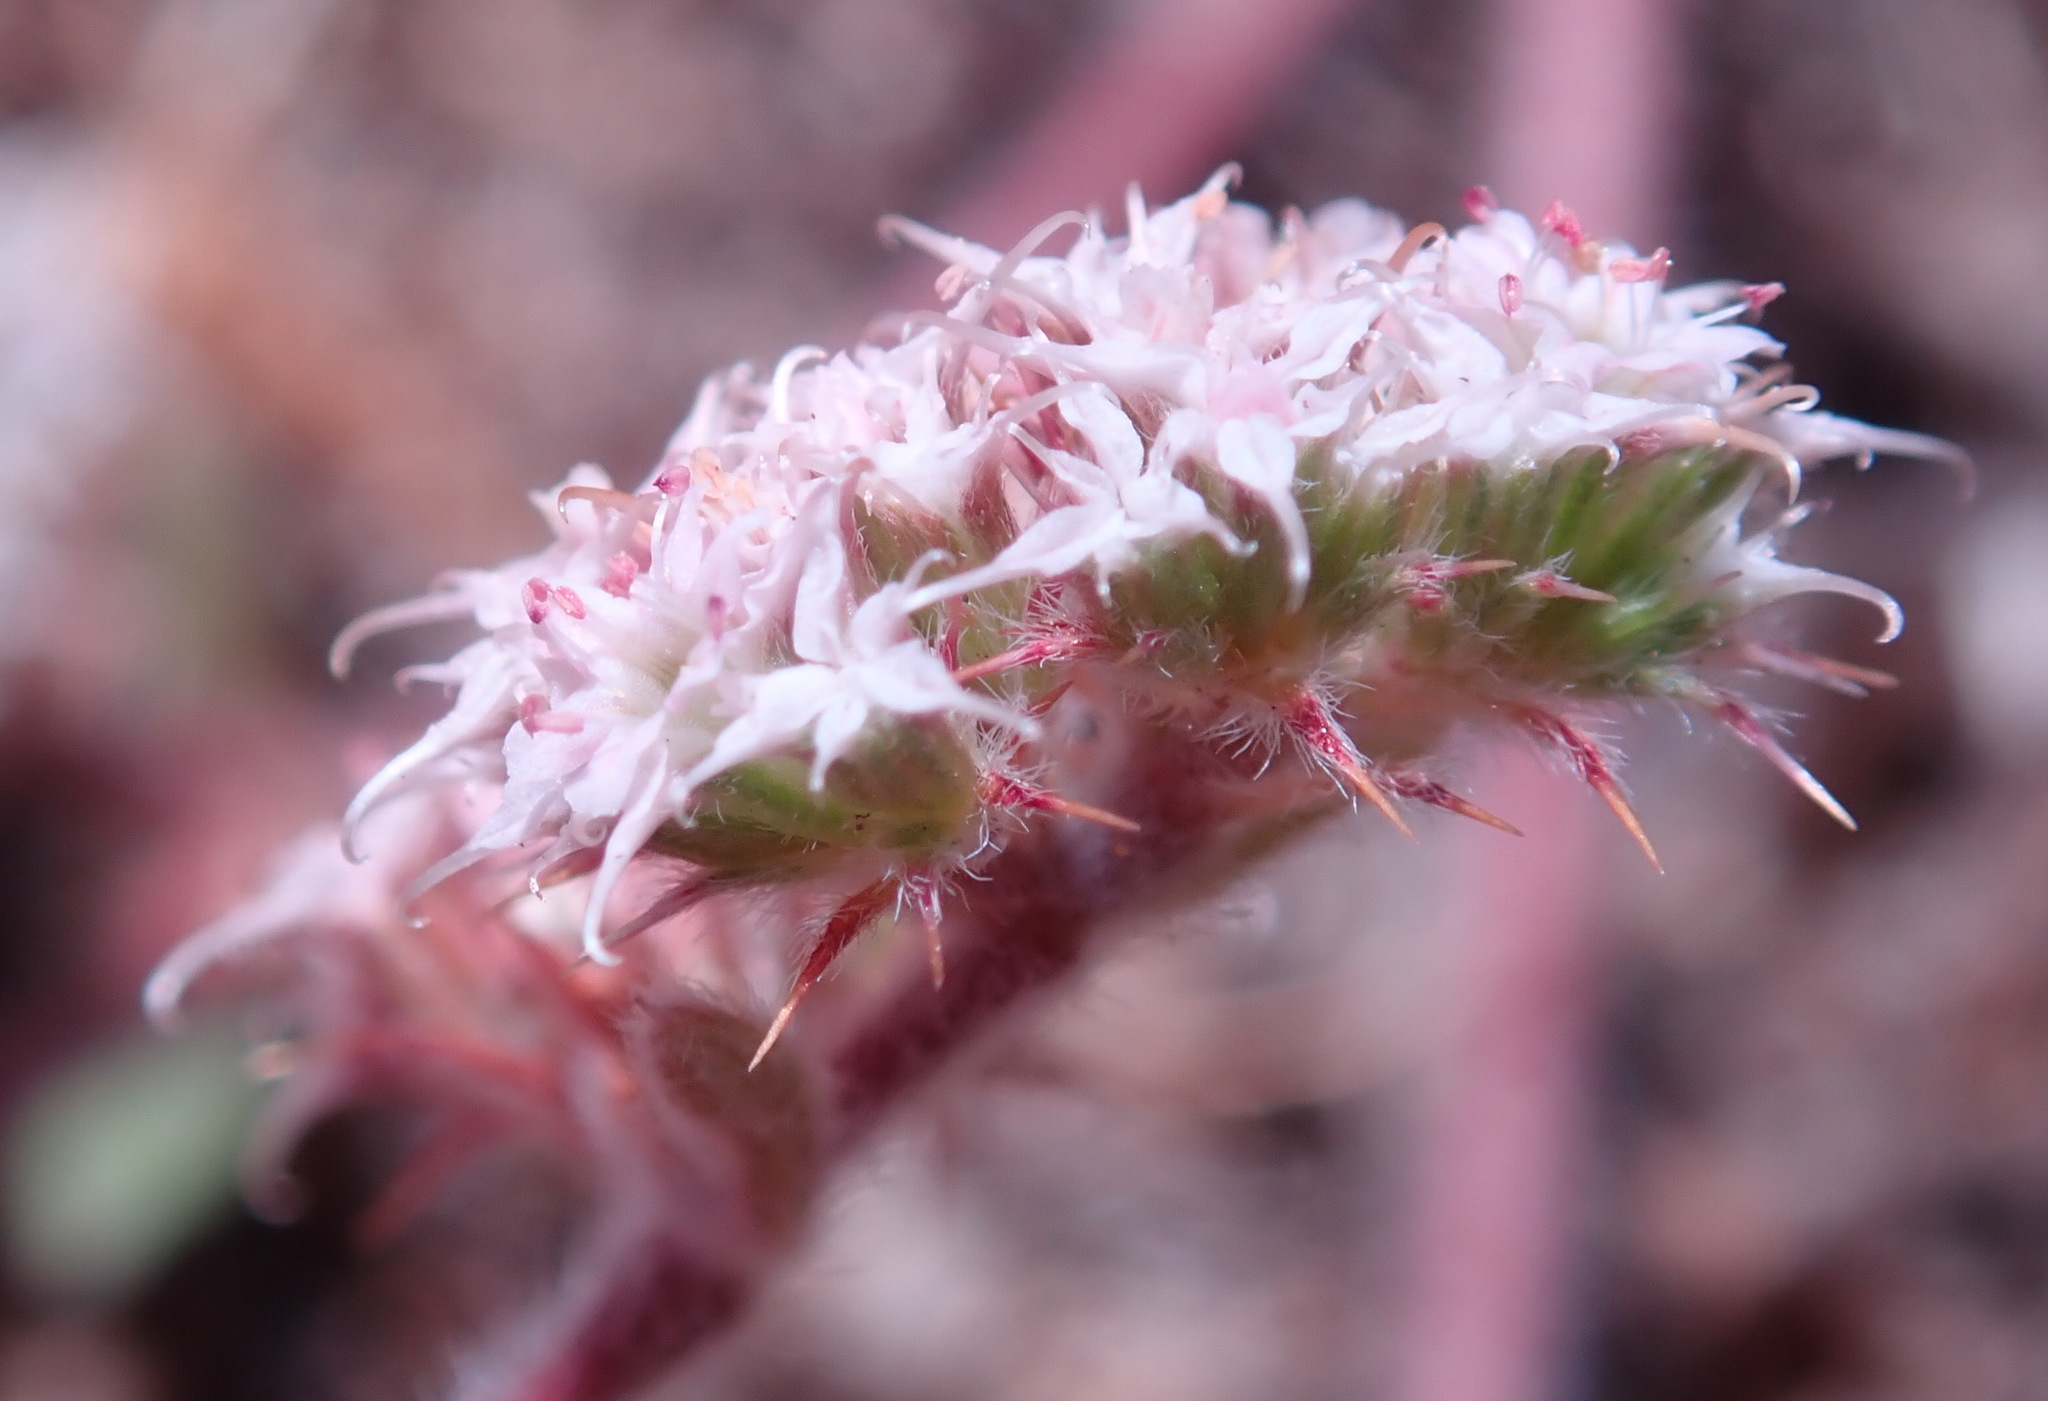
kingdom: Plantae
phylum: Tracheophyta
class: Magnoliopsida
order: Caryophyllales
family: Polygonaceae
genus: Chorizanthe
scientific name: Chorizanthe pungens
